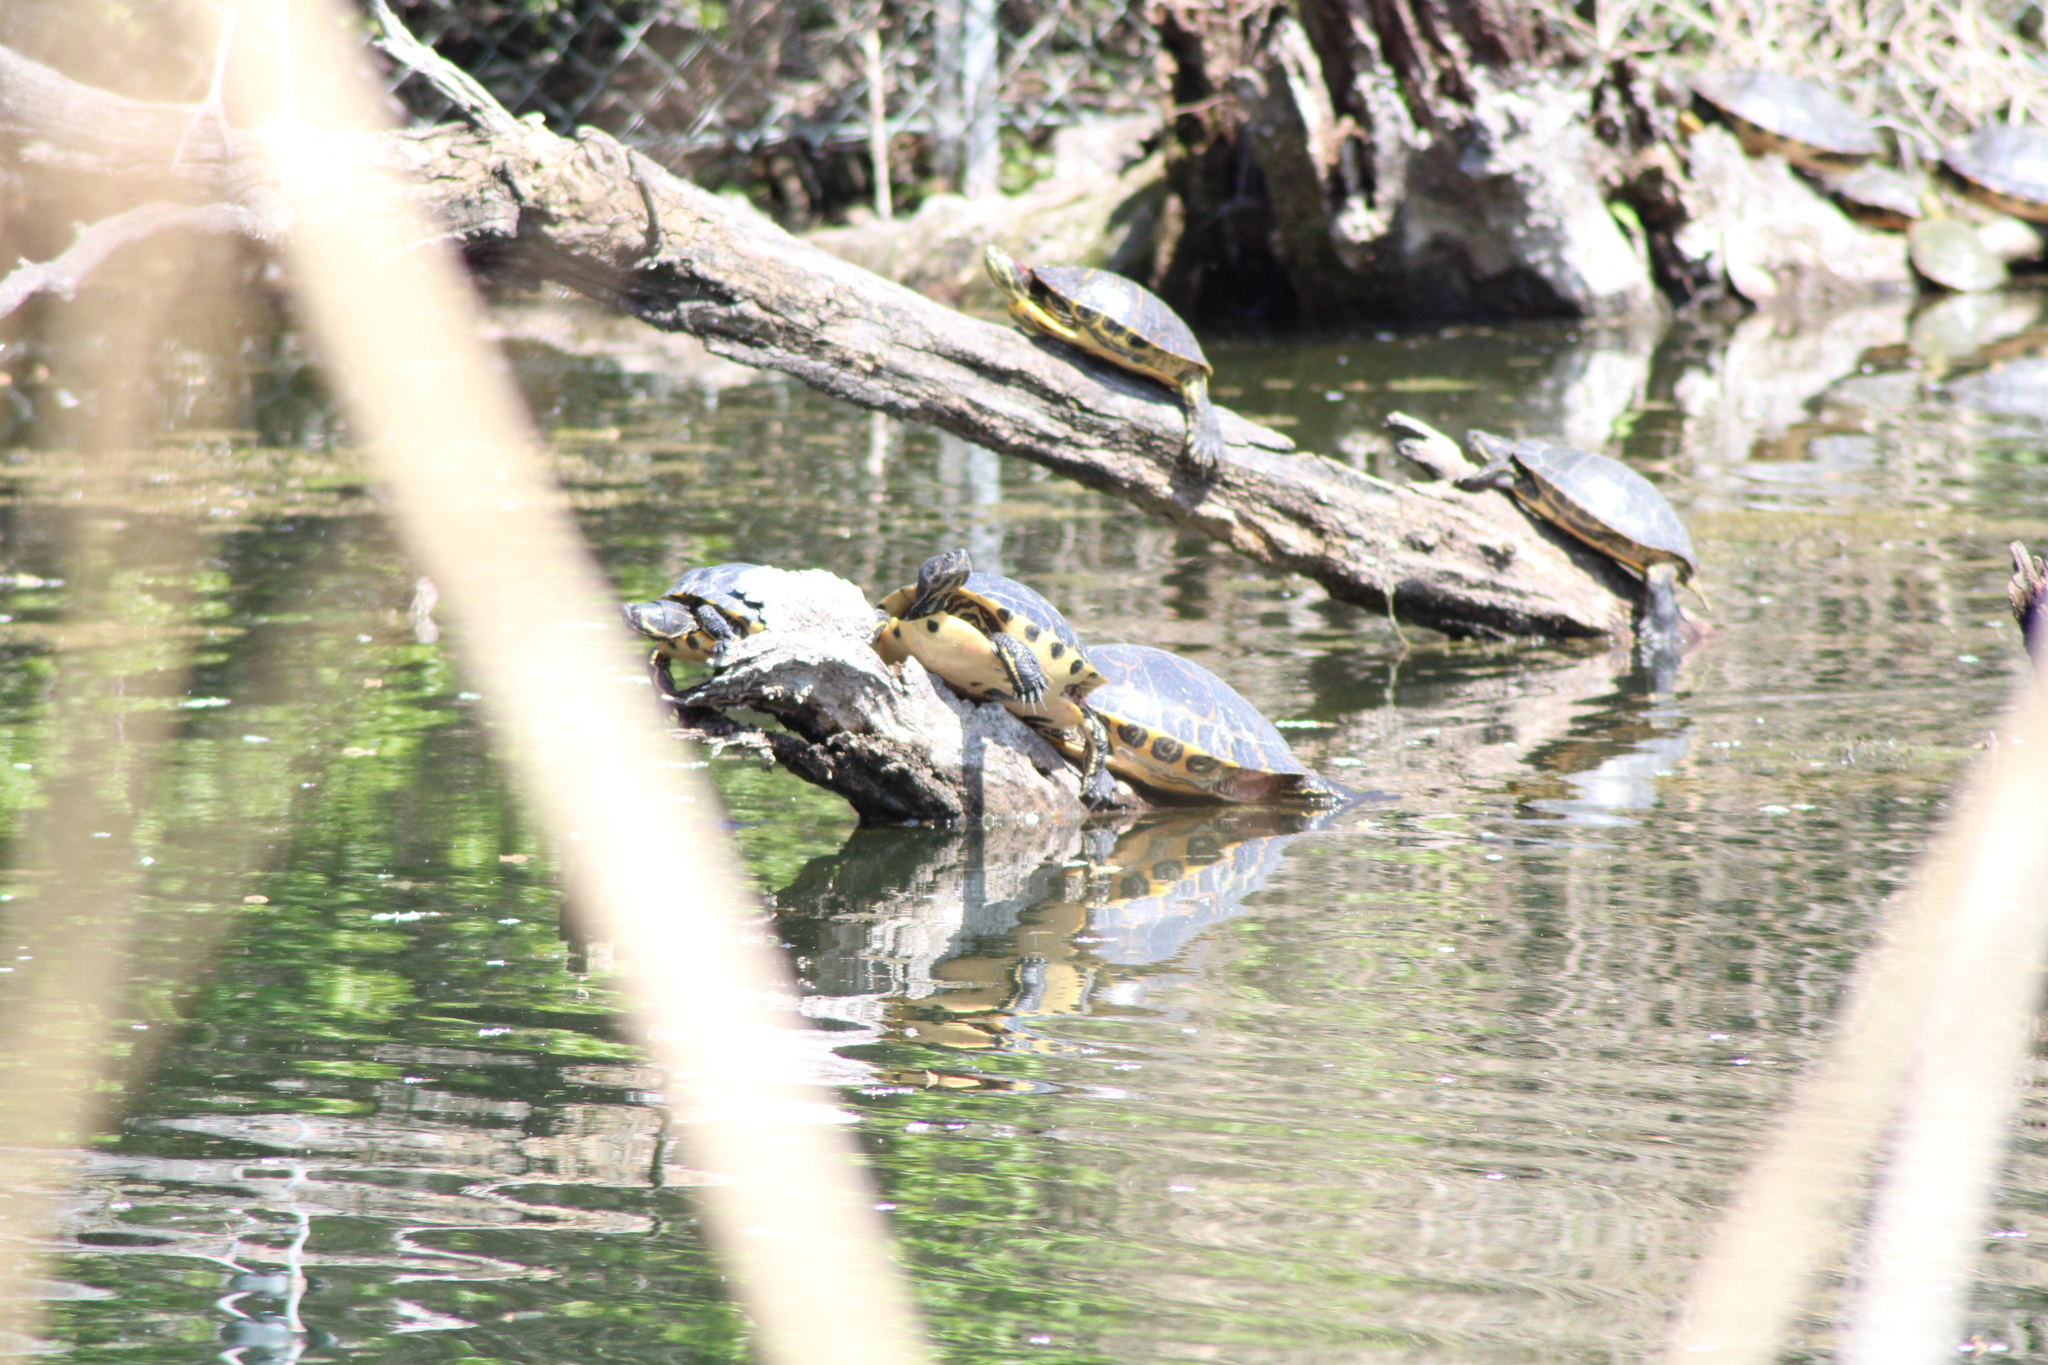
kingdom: Animalia
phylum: Chordata
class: Testudines
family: Emydidae
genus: Trachemys
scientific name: Trachemys scripta
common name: Slider
